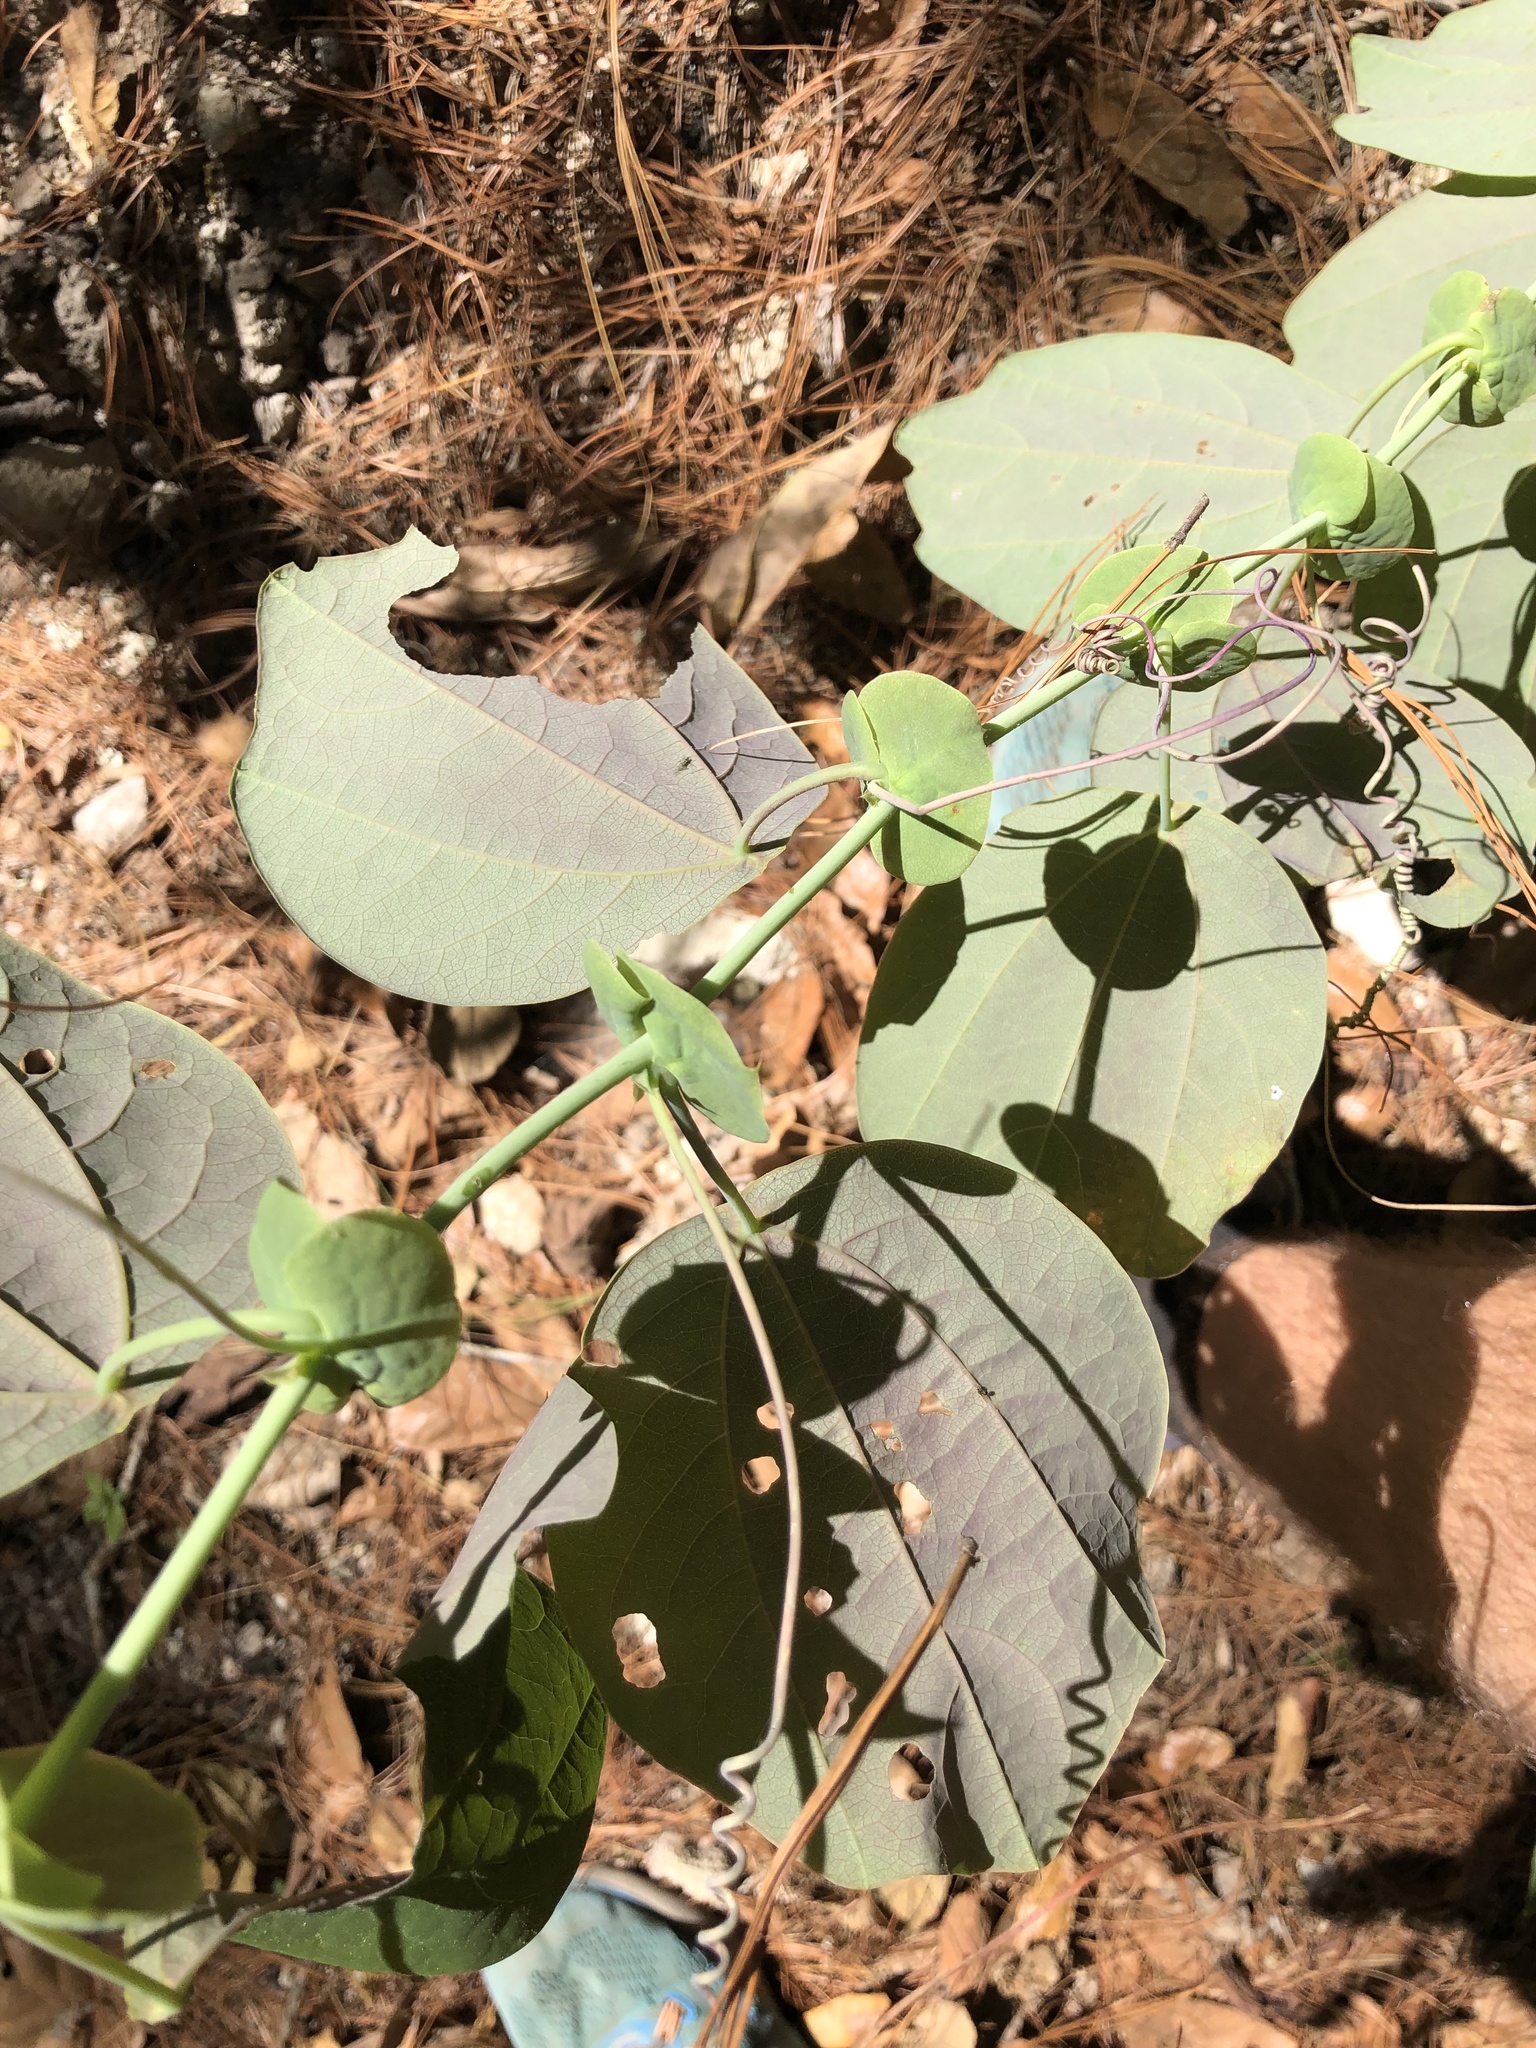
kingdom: Plantae
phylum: Tracheophyta
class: Magnoliopsida
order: Malpighiales
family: Passifloraceae
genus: Passiflora
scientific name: Passiflora membranacea
